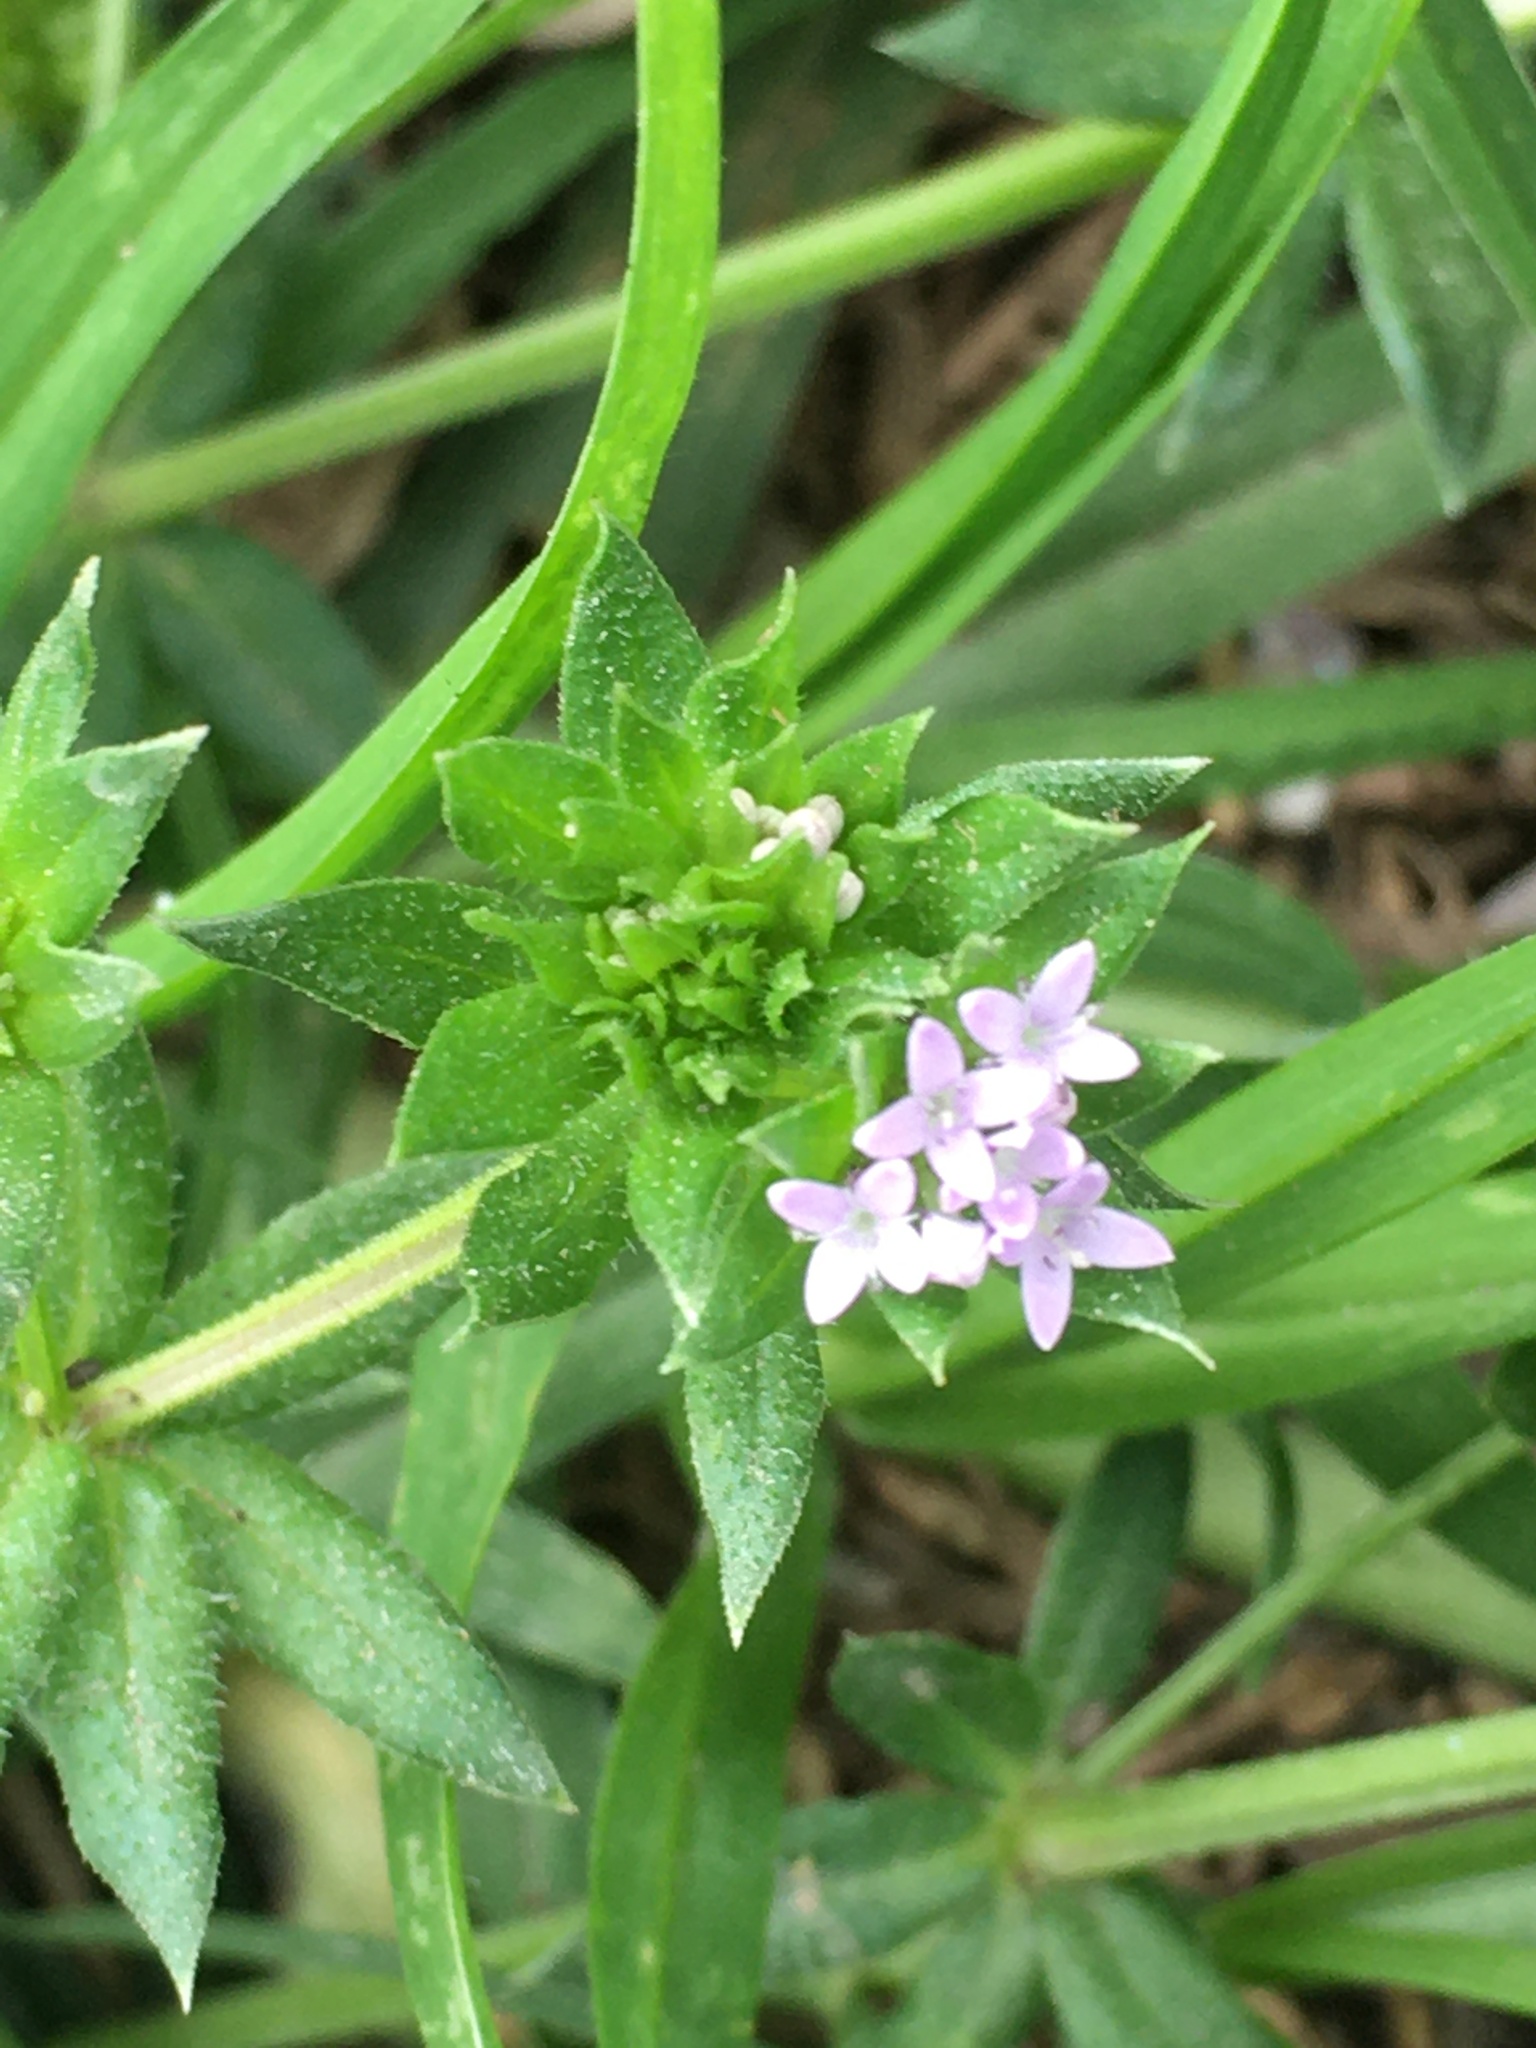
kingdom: Plantae
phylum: Tracheophyta
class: Magnoliopsida
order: Gentianales
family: Rubiaceae
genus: Sherardia
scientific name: Sherardia arvensis
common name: Field madder
